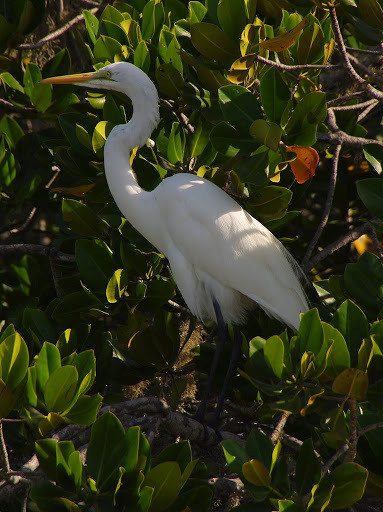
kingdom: Animalia
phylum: Chordata
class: Aves
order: Pelecaniformes
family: Ardeidae
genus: Ardea
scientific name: Ardea alba
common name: Great egret
